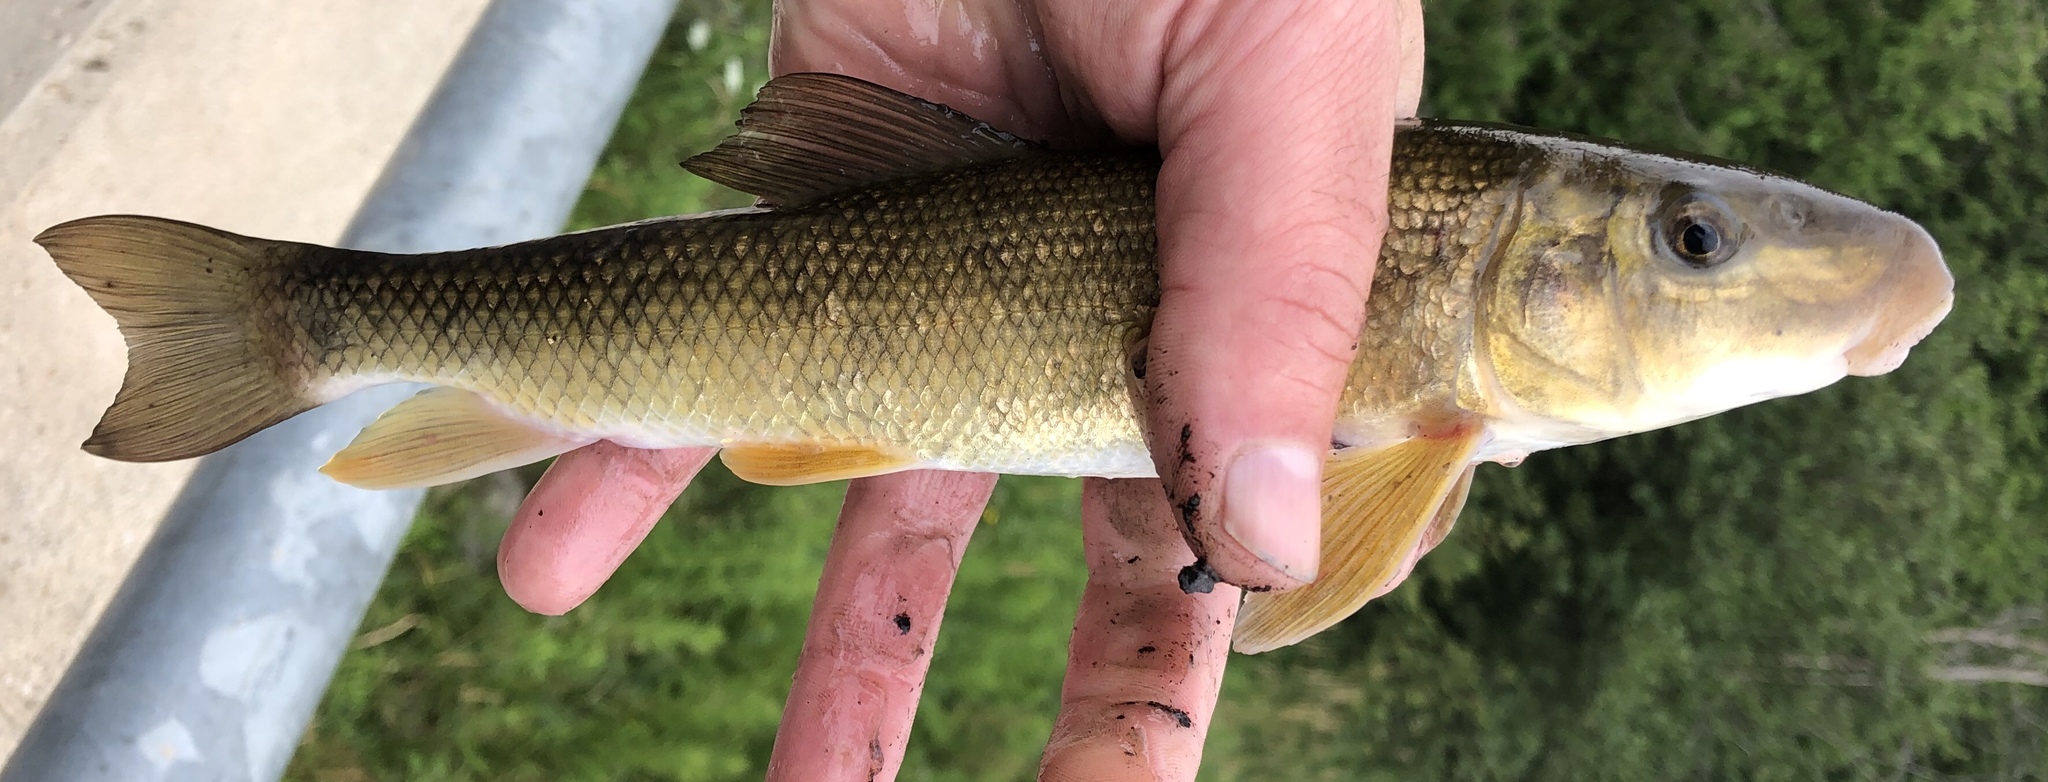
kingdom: Animalia
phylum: Chordata
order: Cypriniformes
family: Catostomidae
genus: Catostomus
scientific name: Catostomus commersonii
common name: White sucker
